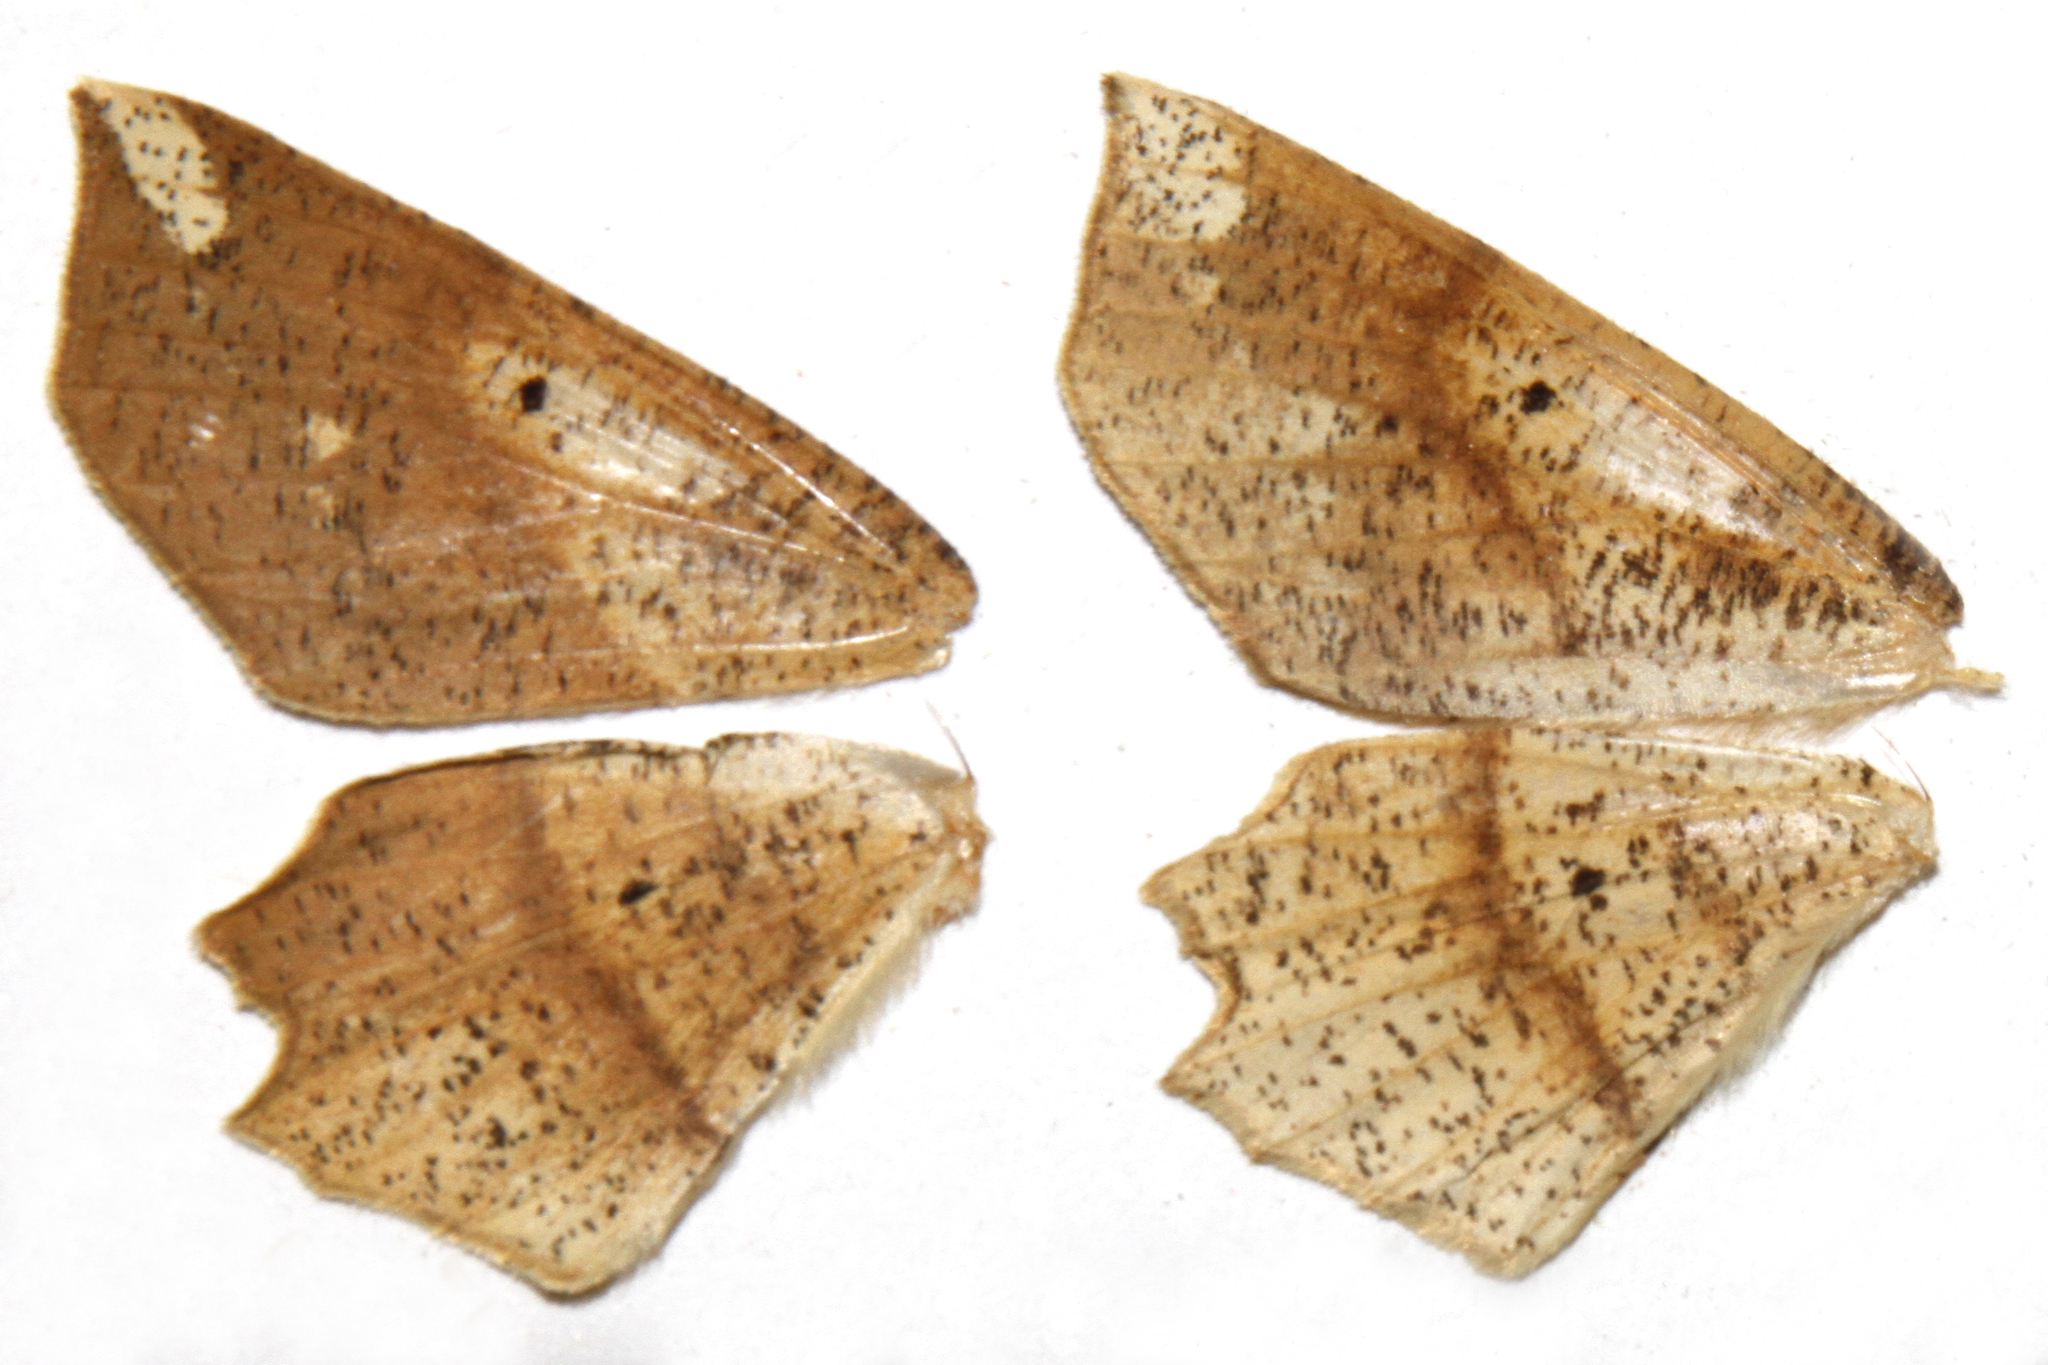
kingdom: Animalia
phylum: Arthropoda
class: Insecta
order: Lepidoptera
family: Geometridae
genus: Euchlaena
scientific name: Euchlaena amoenaria
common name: Deep yellow euchlaena
